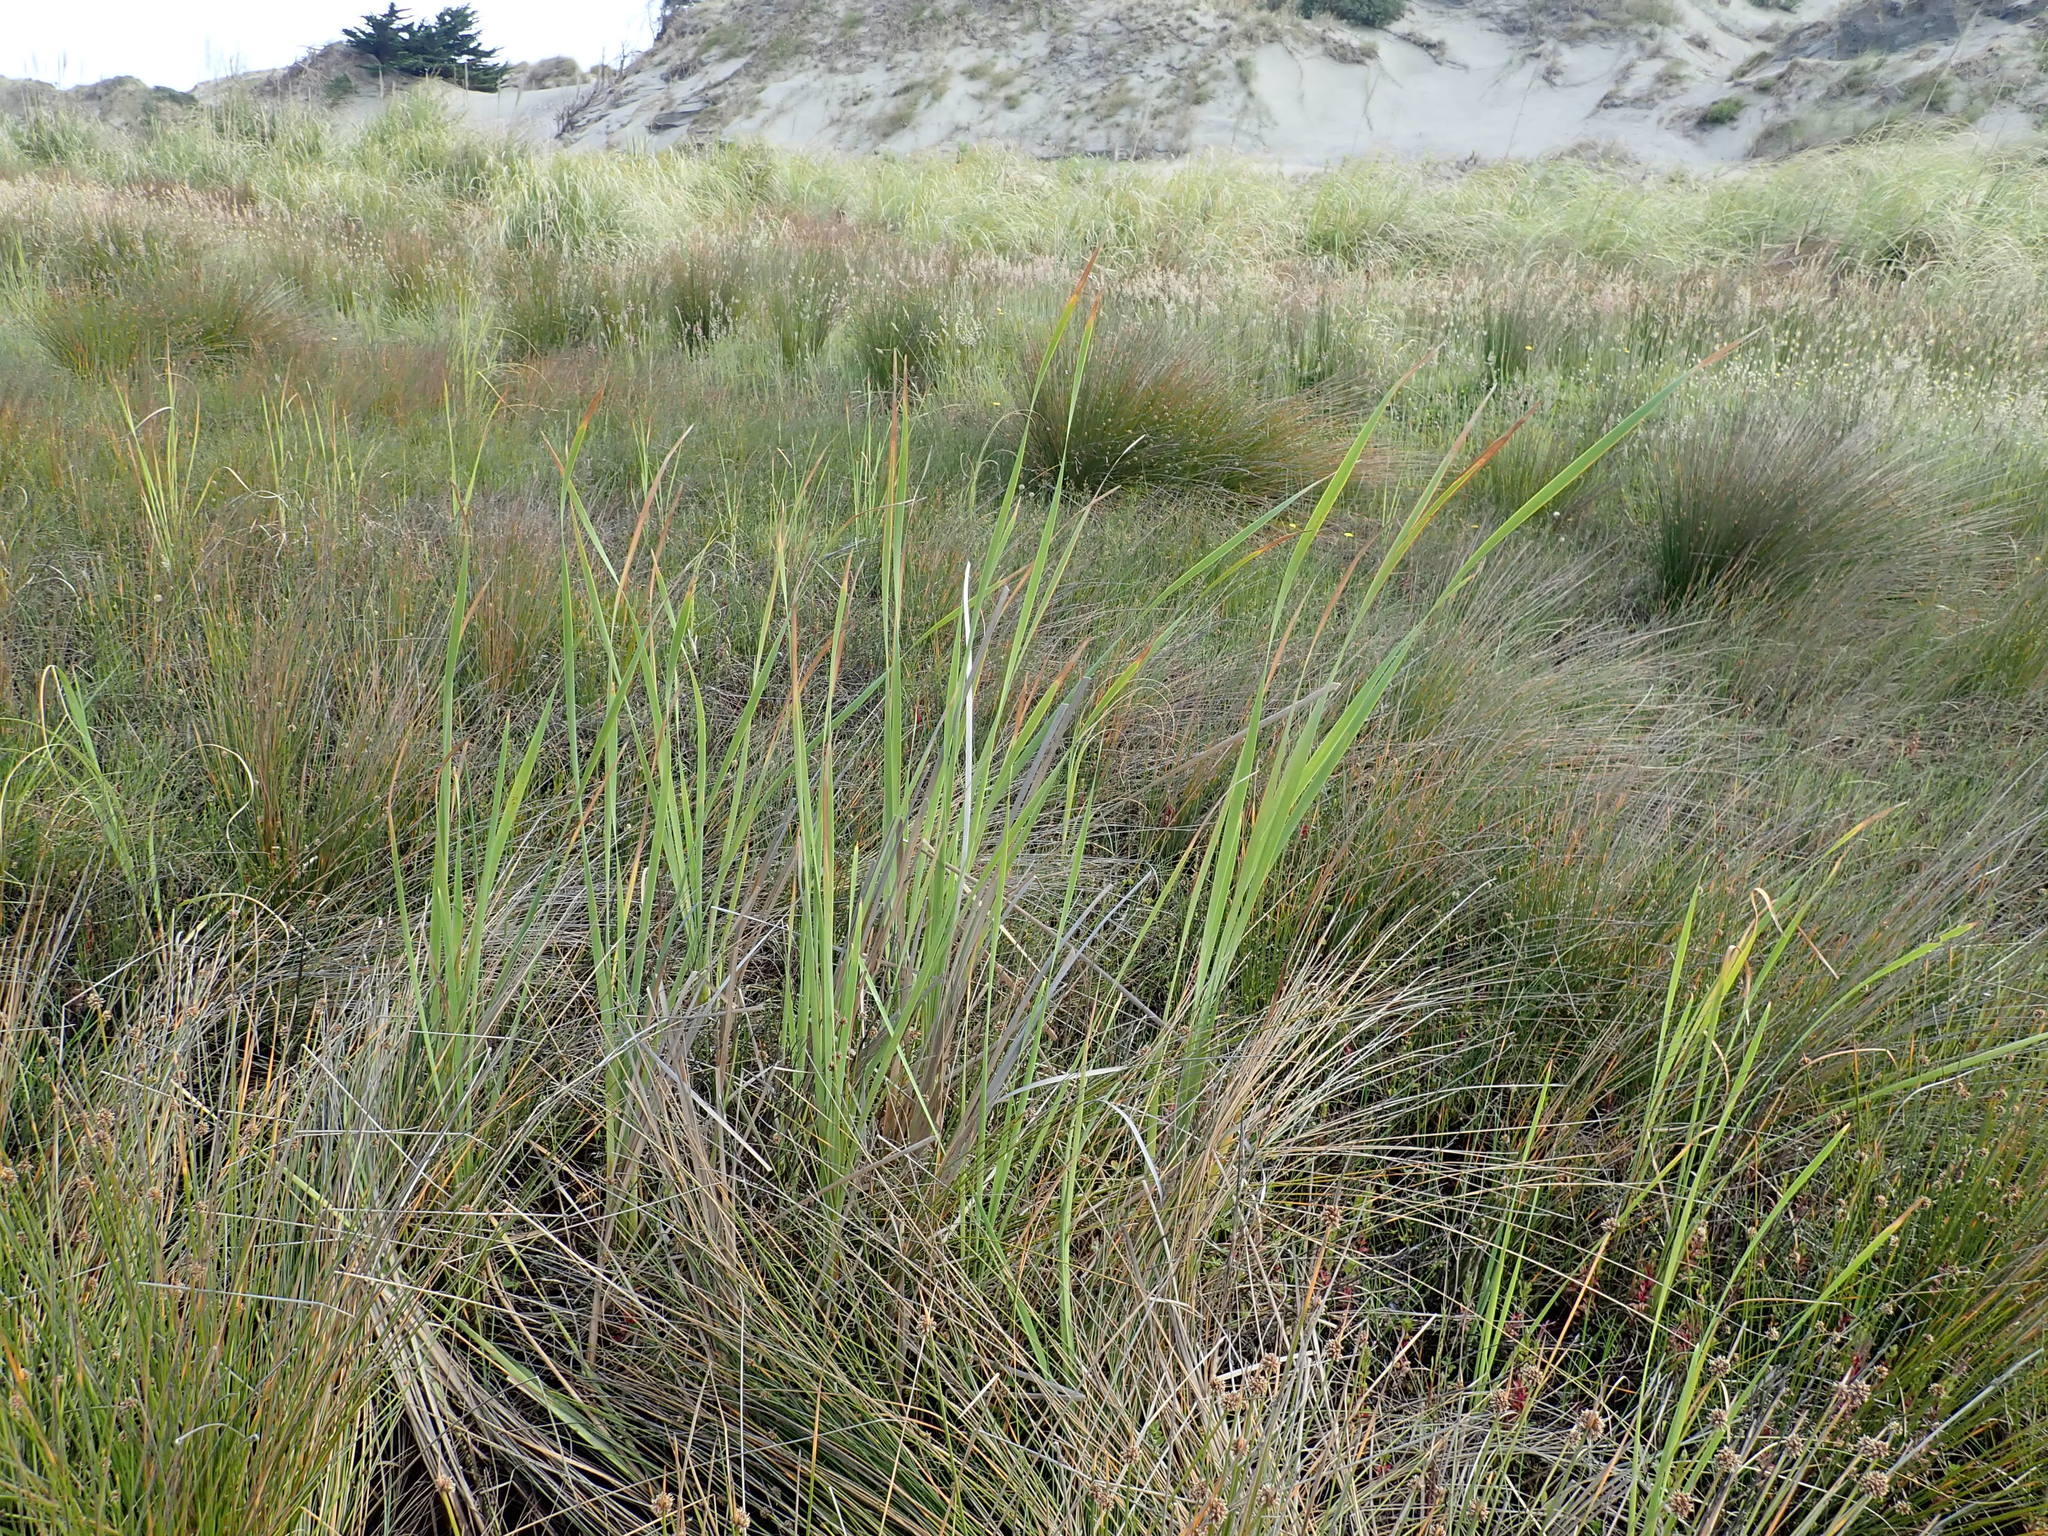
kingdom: Plantae
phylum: Tracheophyta
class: Liliopsida
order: Poales
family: Typhaceae
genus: Typha
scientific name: Typha orientalis
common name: Bullrush
